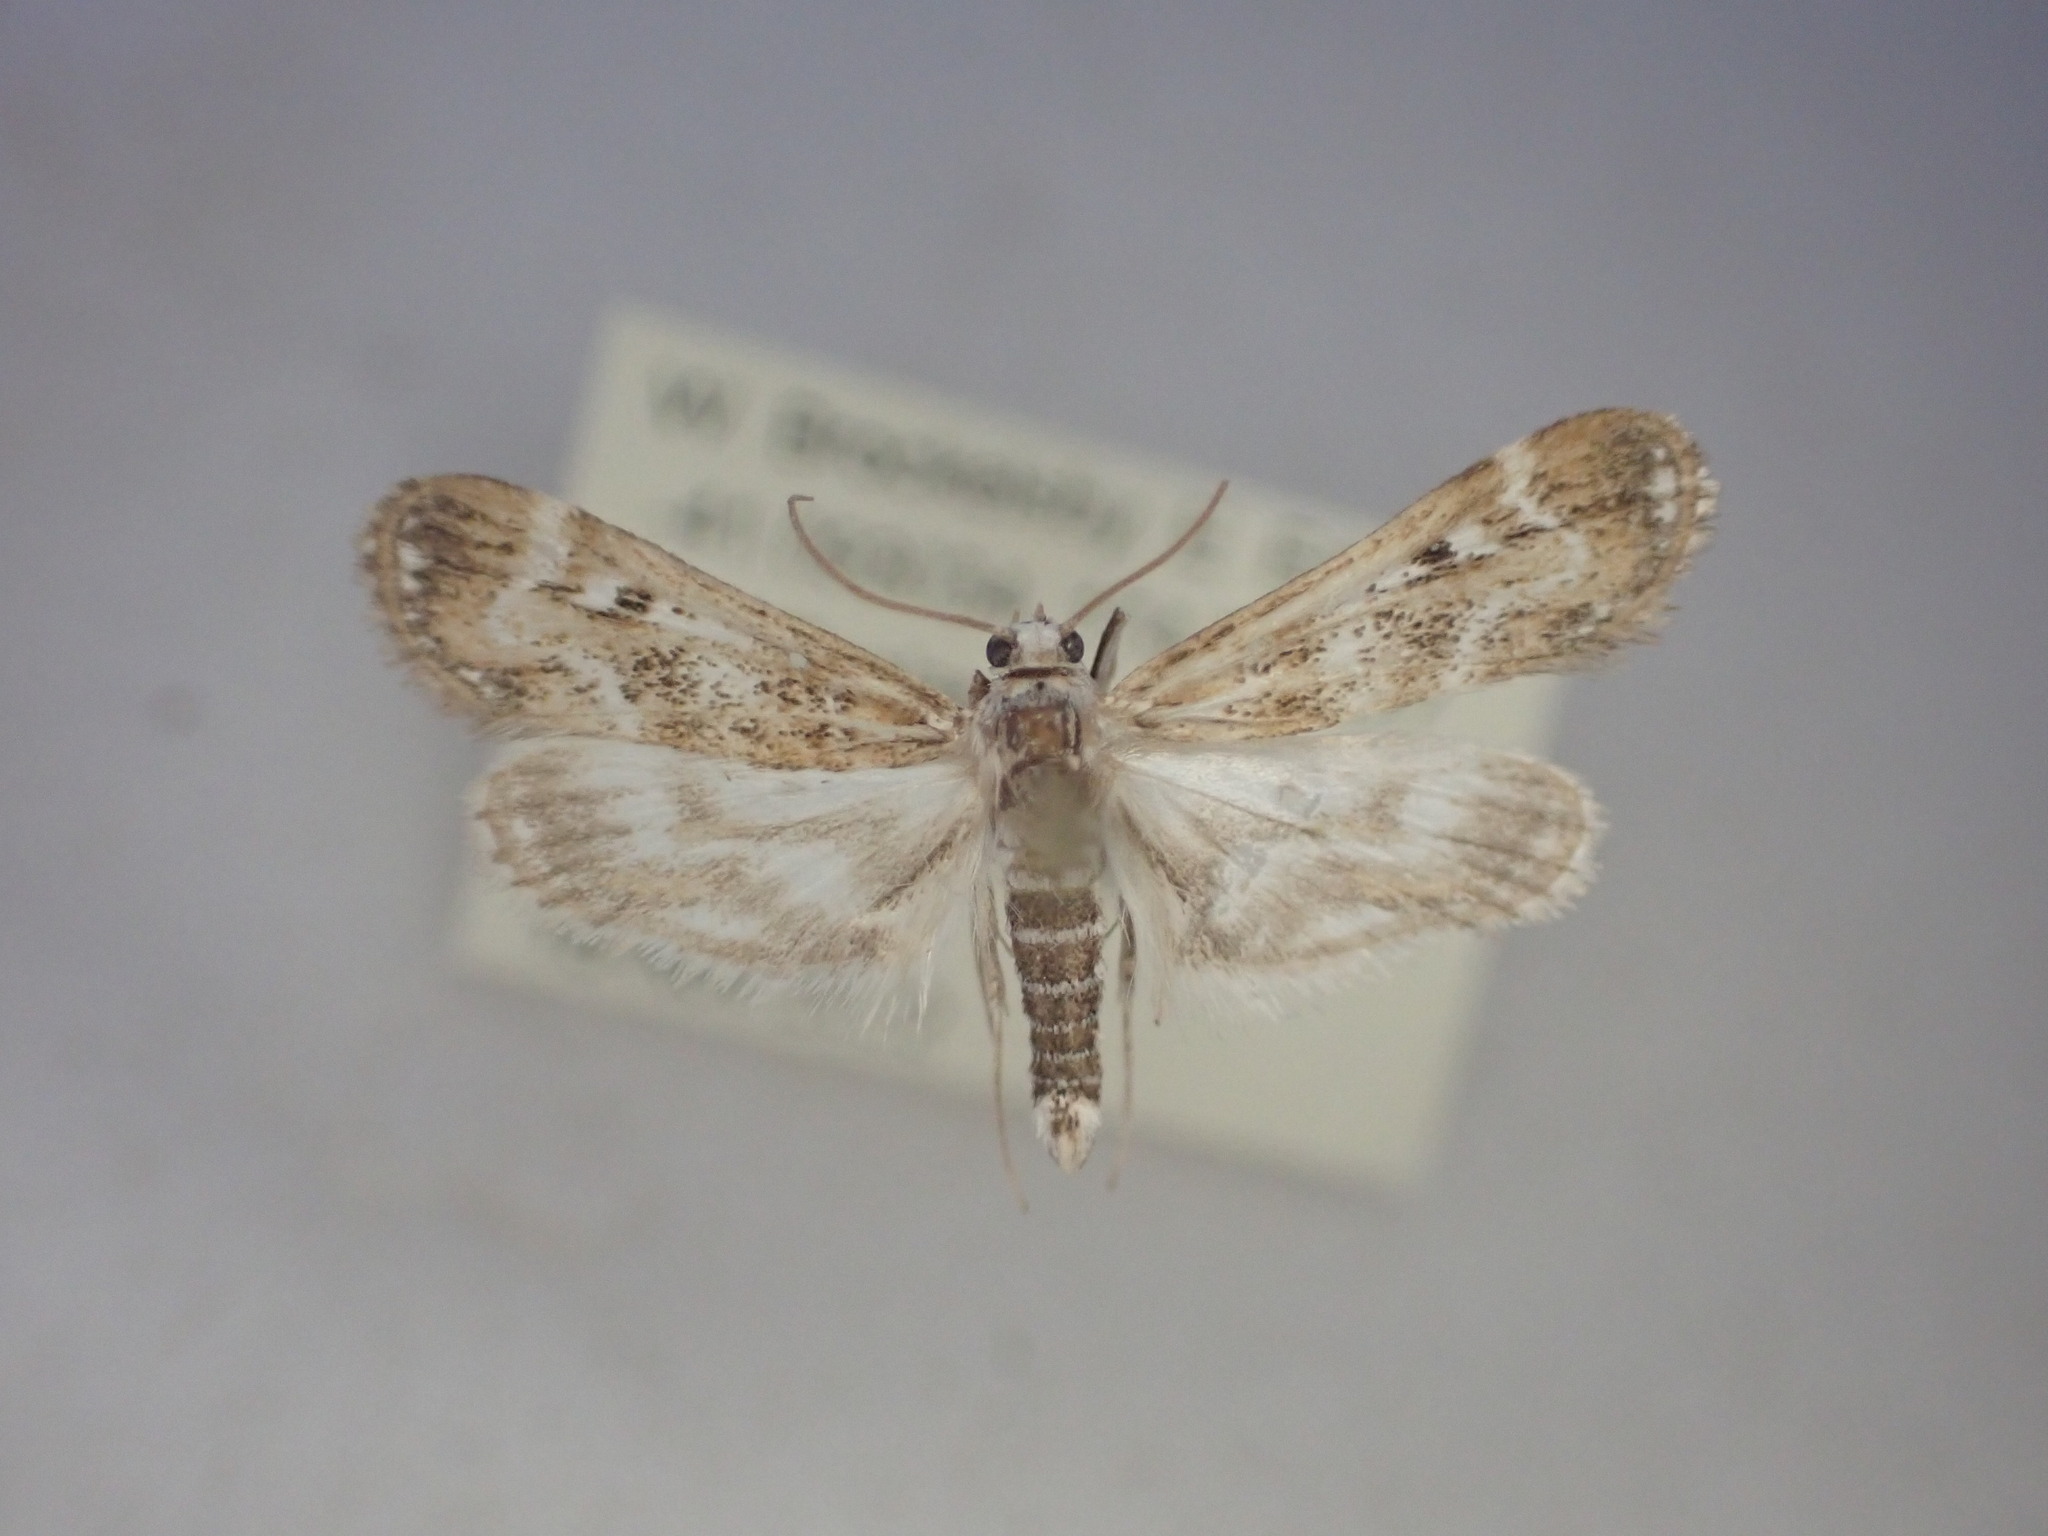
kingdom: Animalia
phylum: Arthropoda
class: Insecta
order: Lepidoptera
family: Crambidae
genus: Hygraula
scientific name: Hygraula nitens
